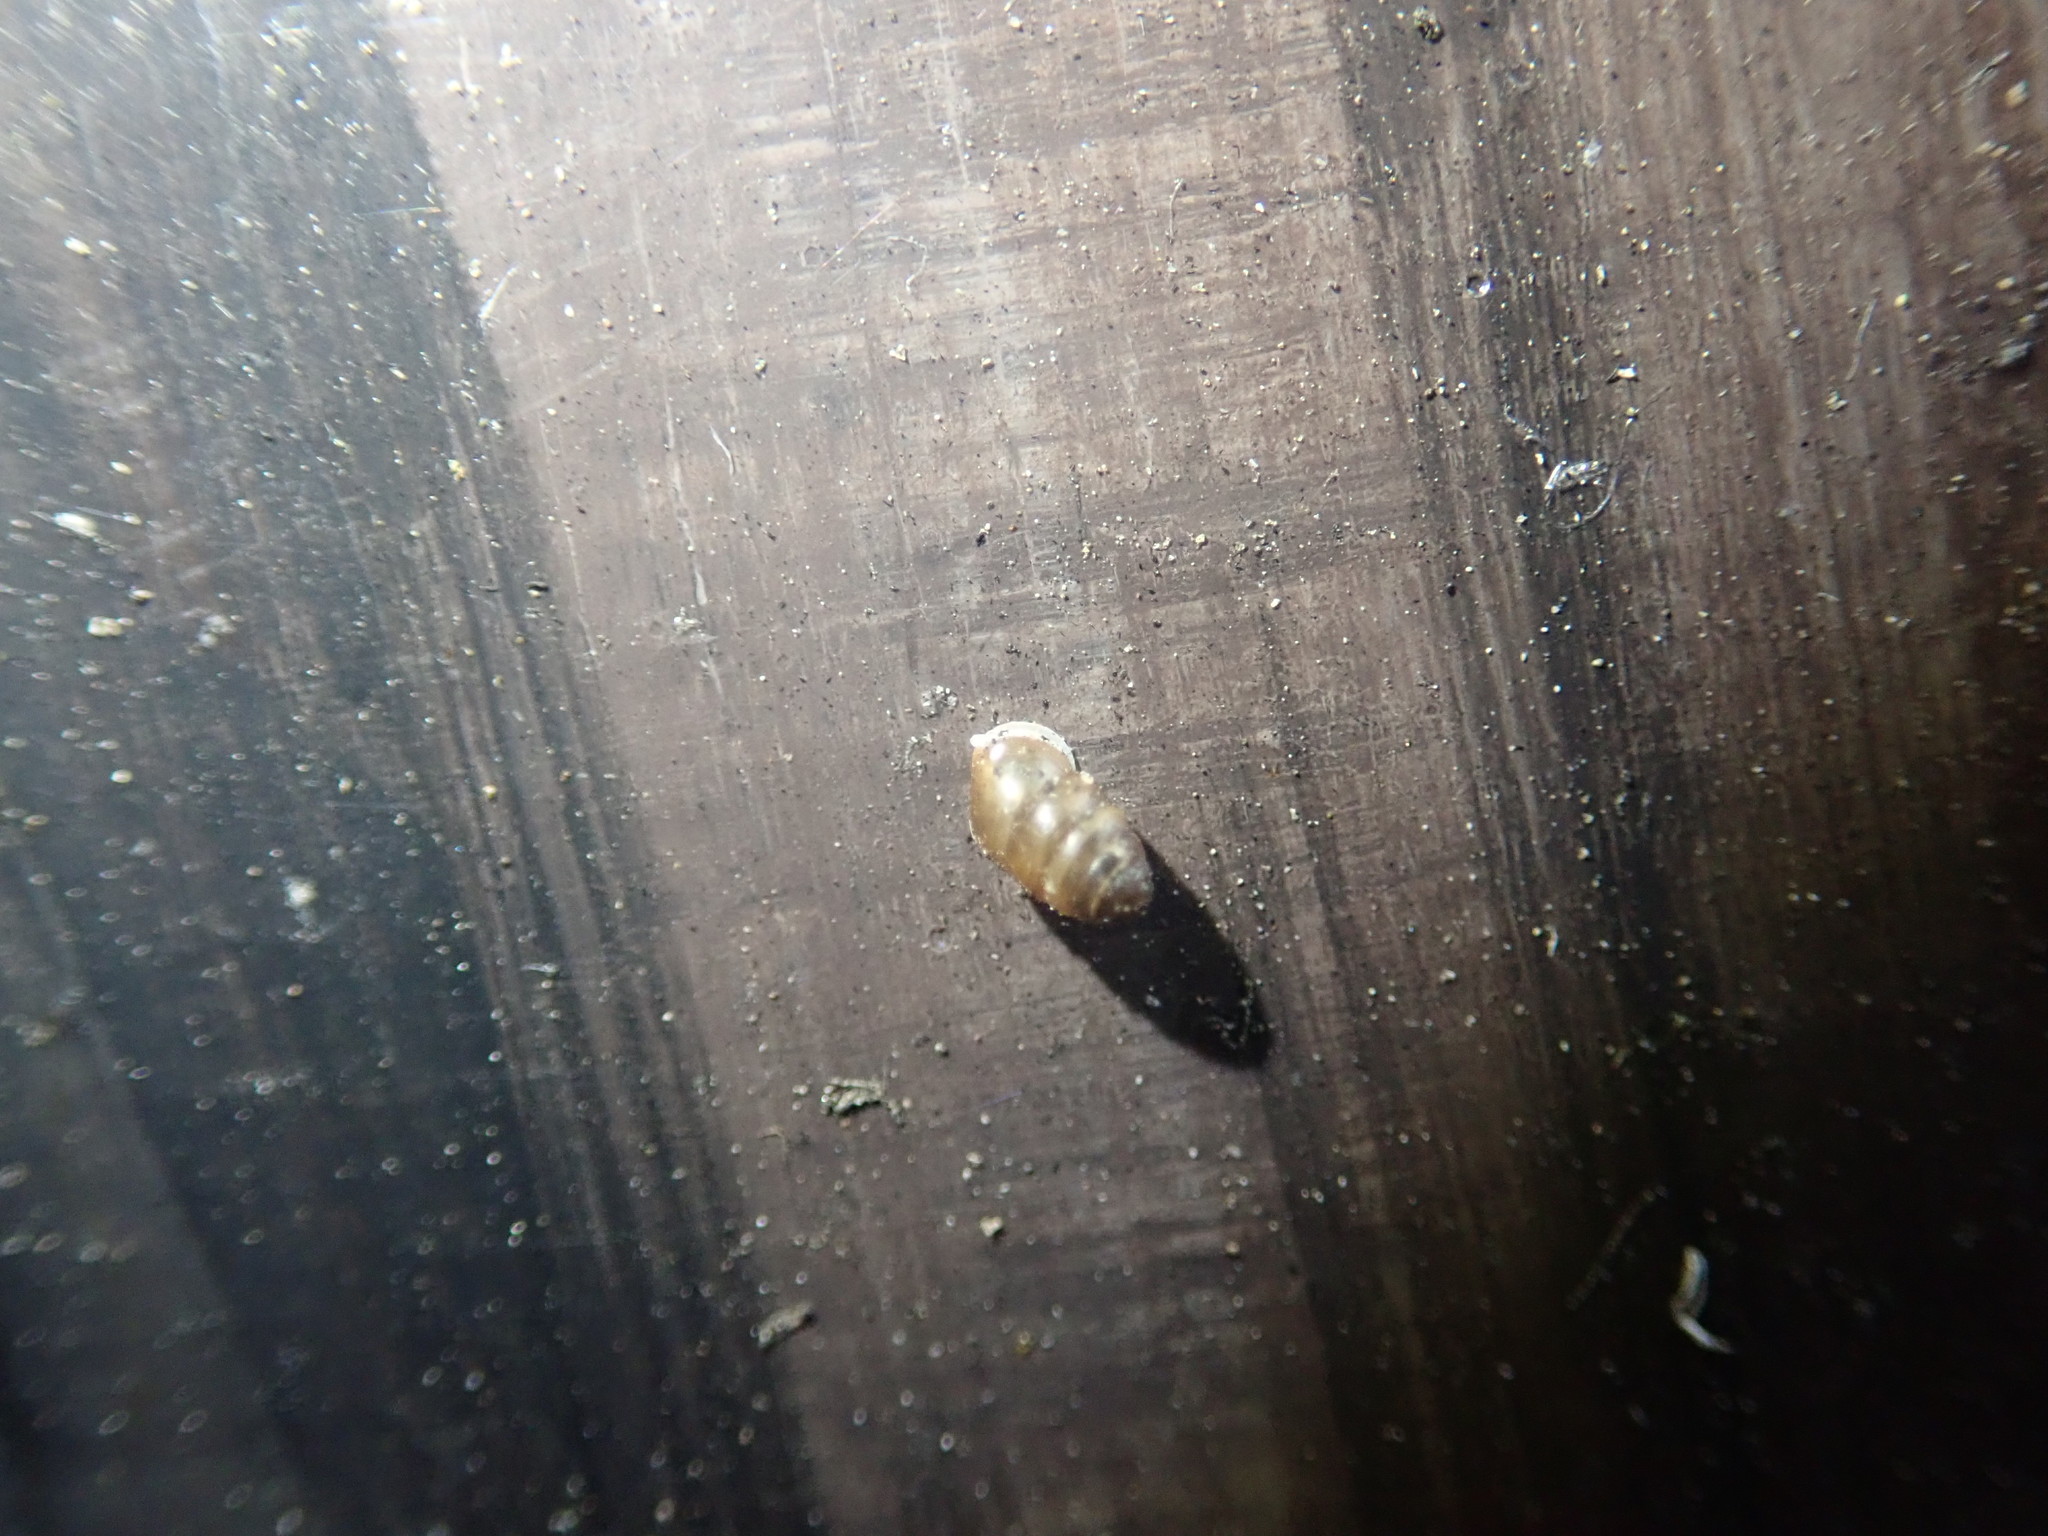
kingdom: Animalia
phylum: Mollusca
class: Gastropoda
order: Stylommatophora
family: Lauriidae
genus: Lauria
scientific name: Lauria cylindracea
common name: Common chrysalis snail
